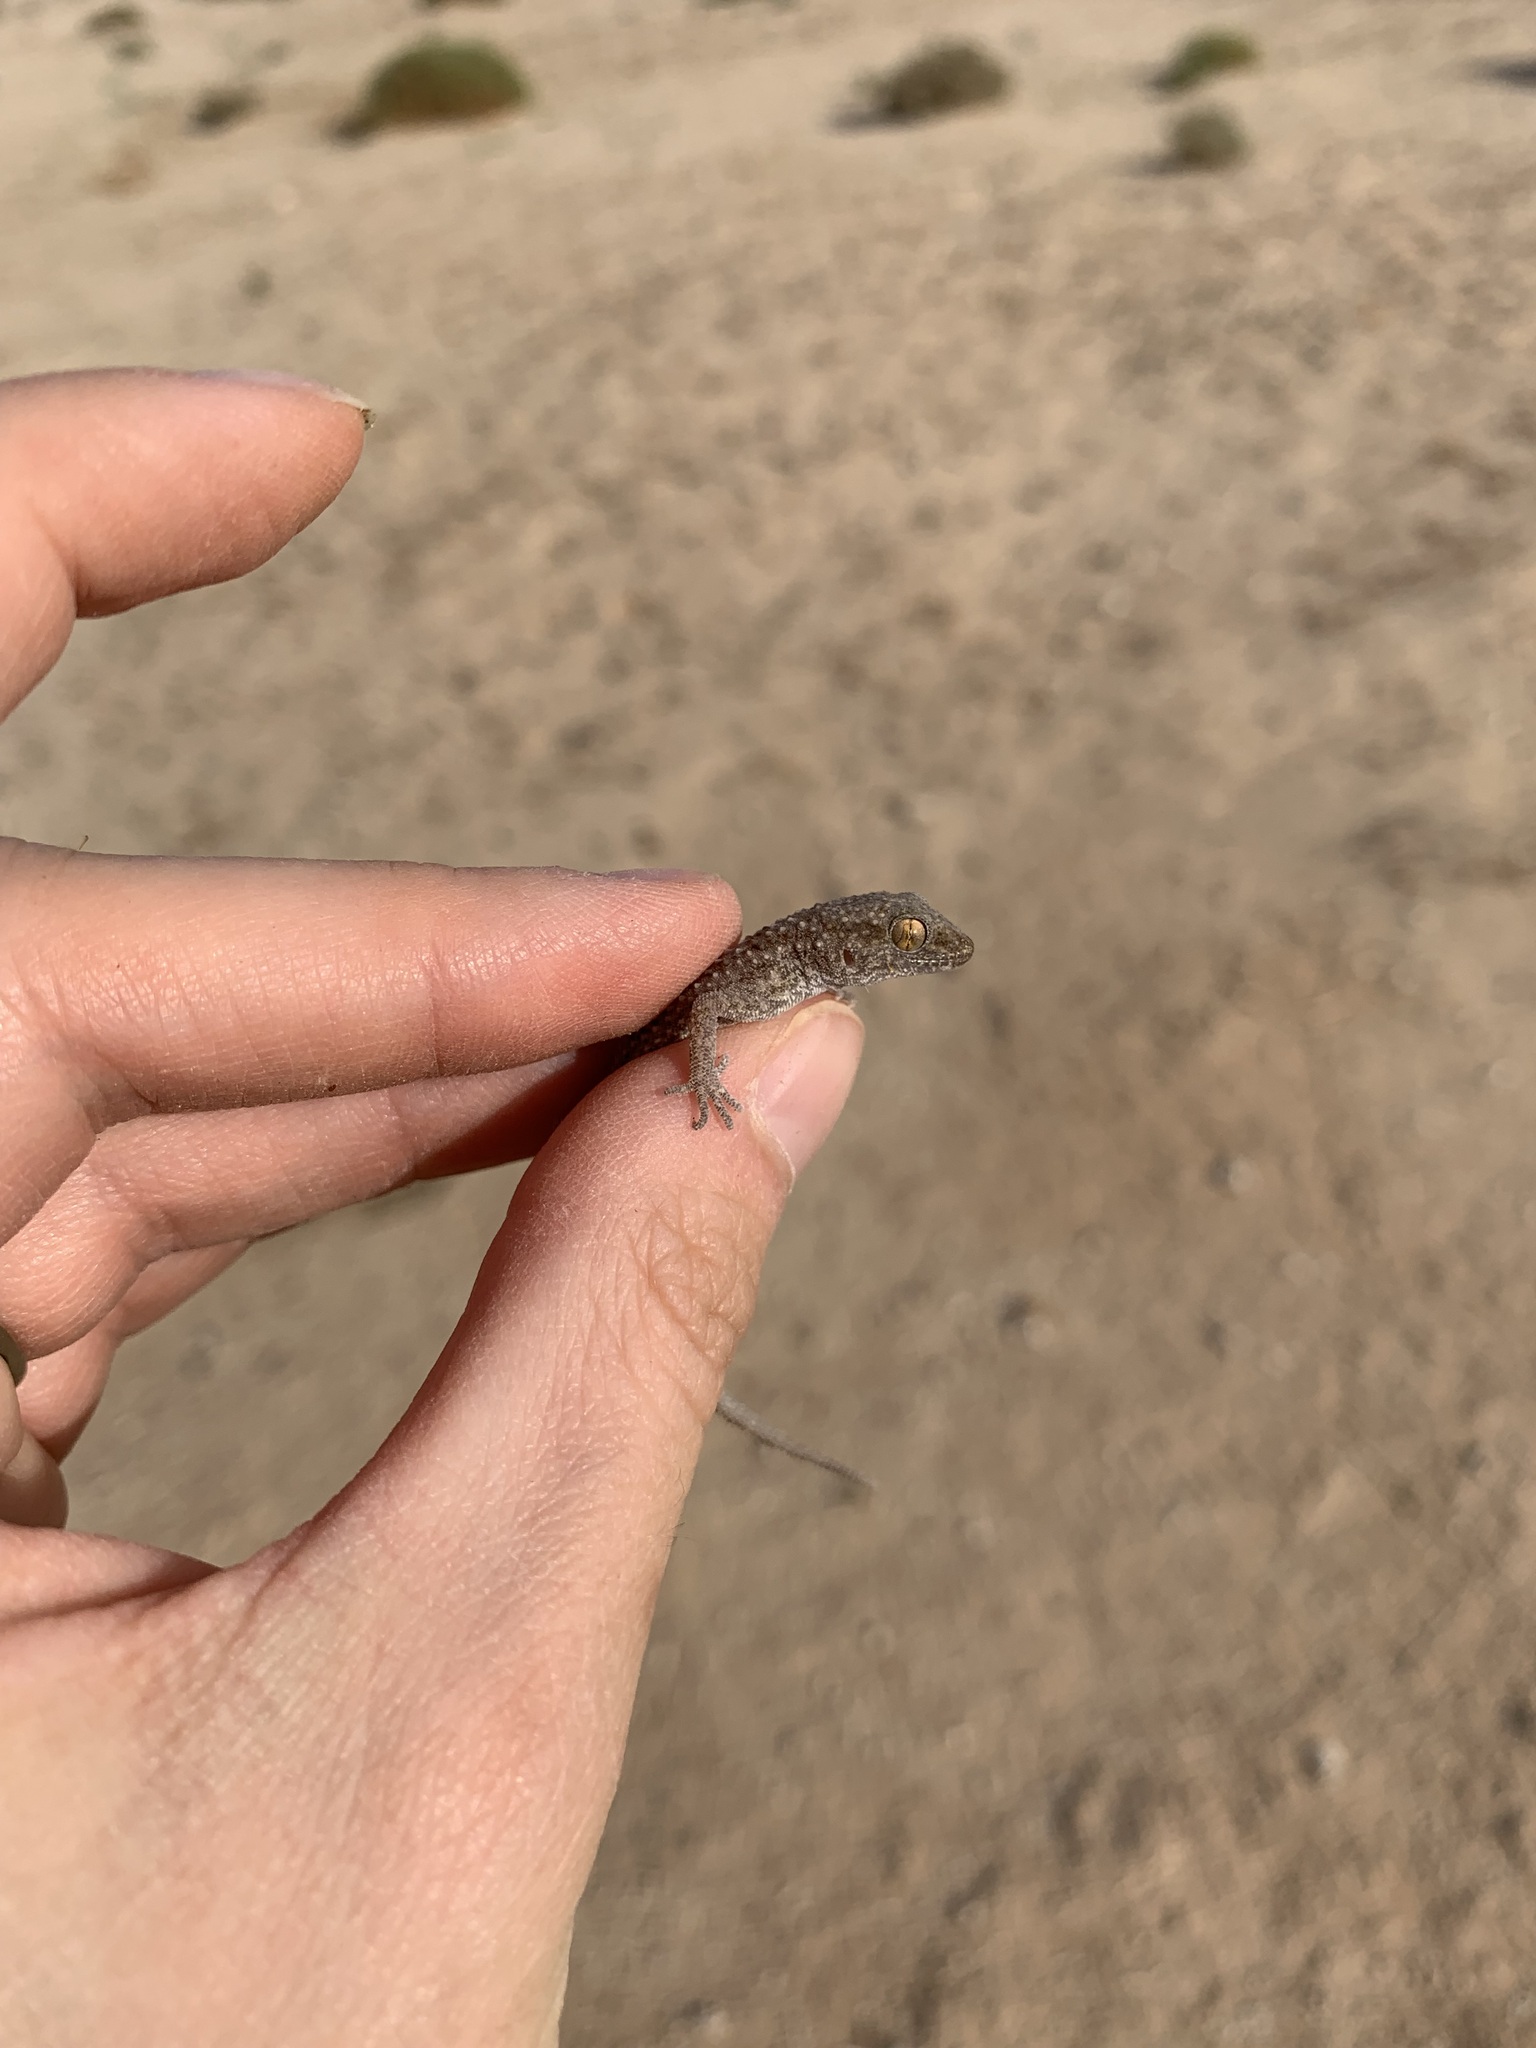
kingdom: Animalia
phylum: Chordata
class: Squamata
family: Gekkonidae
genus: Bunopus
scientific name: Bunopus tuberculatus
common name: Southern tuberculated gecko
